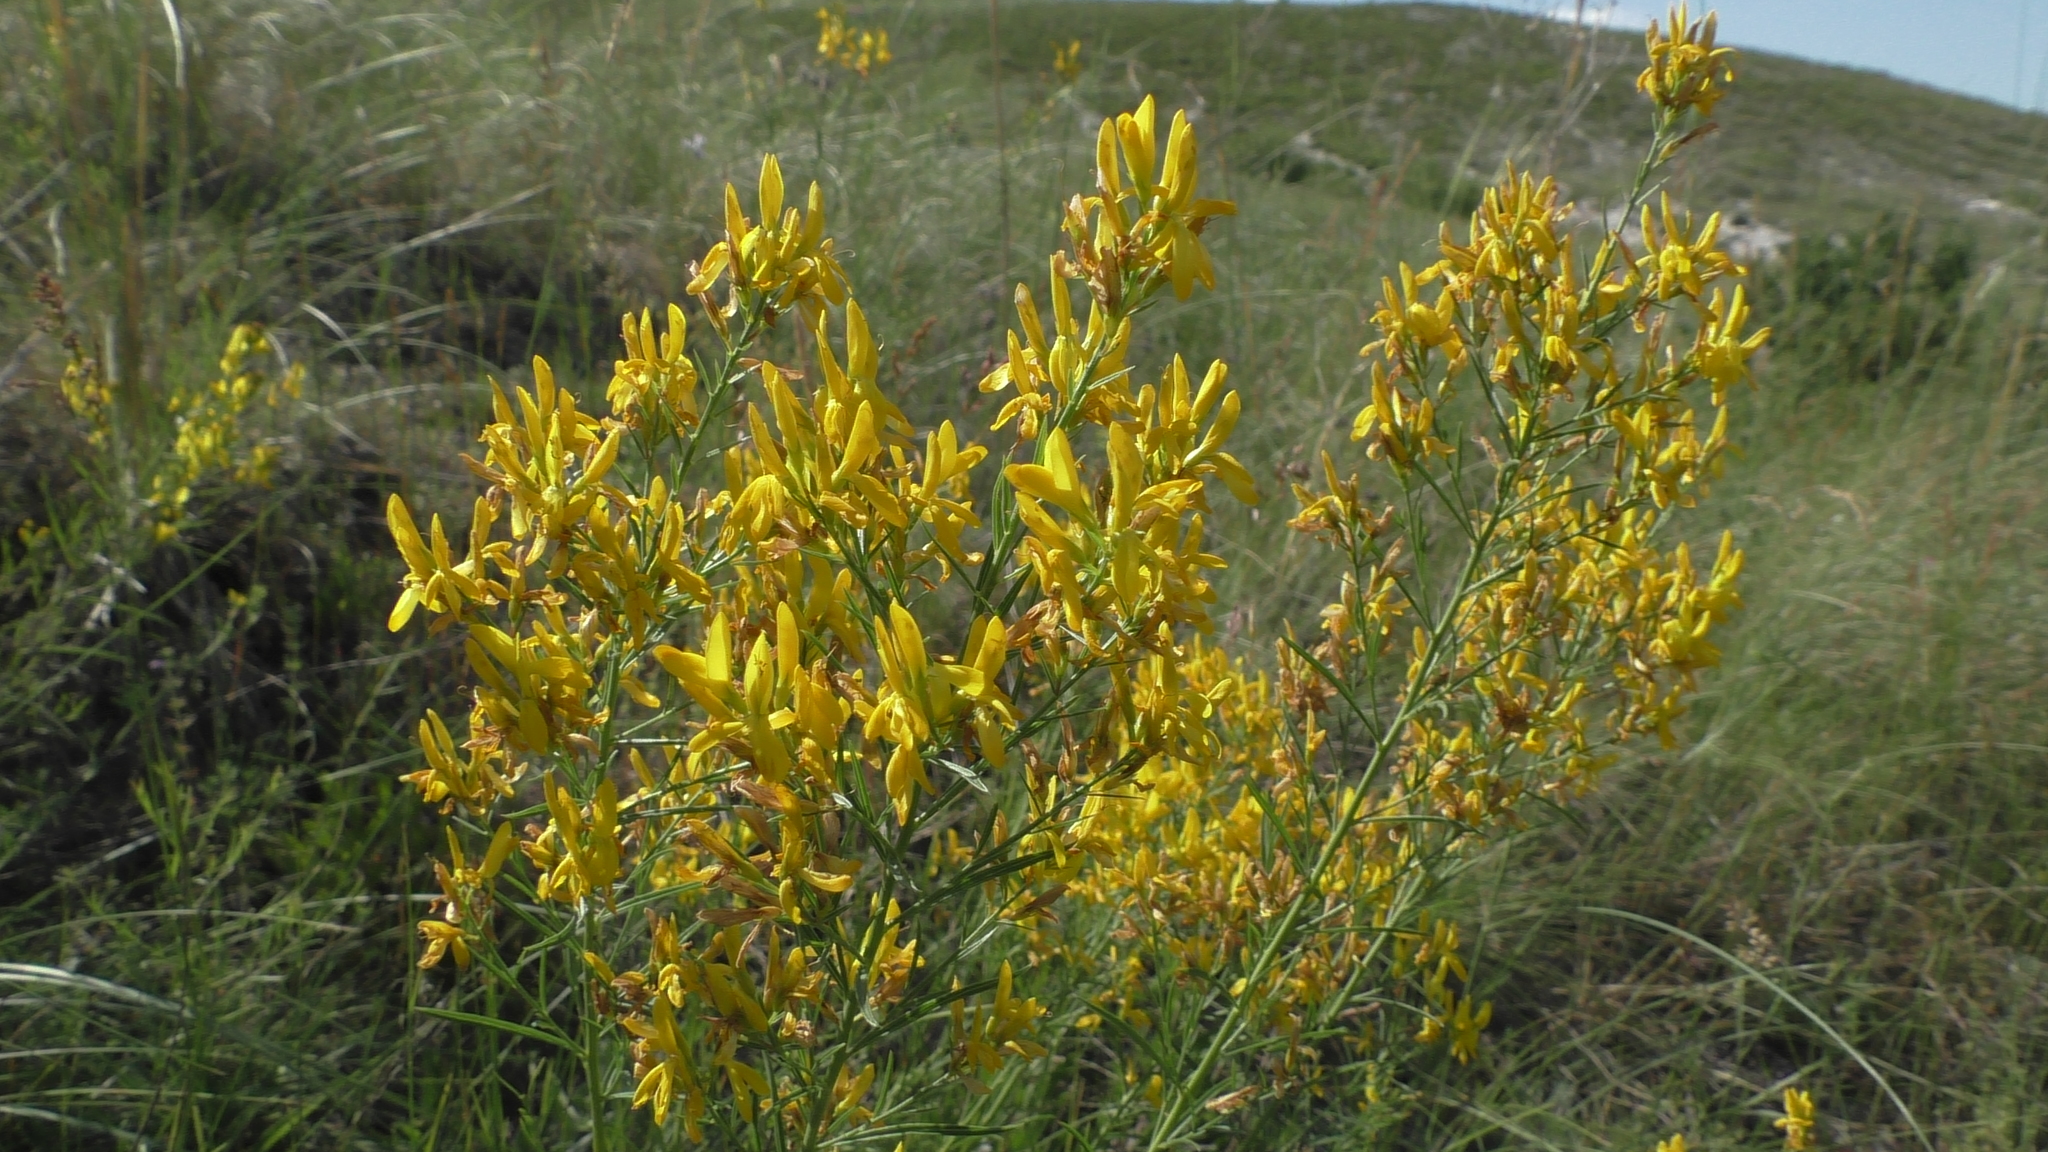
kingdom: Plantae
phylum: Tracheophyta
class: Magnoliopsida
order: Fabales
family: Fabaceae
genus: Genista
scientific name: Genista tinctoria
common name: Dyer's greenweed
